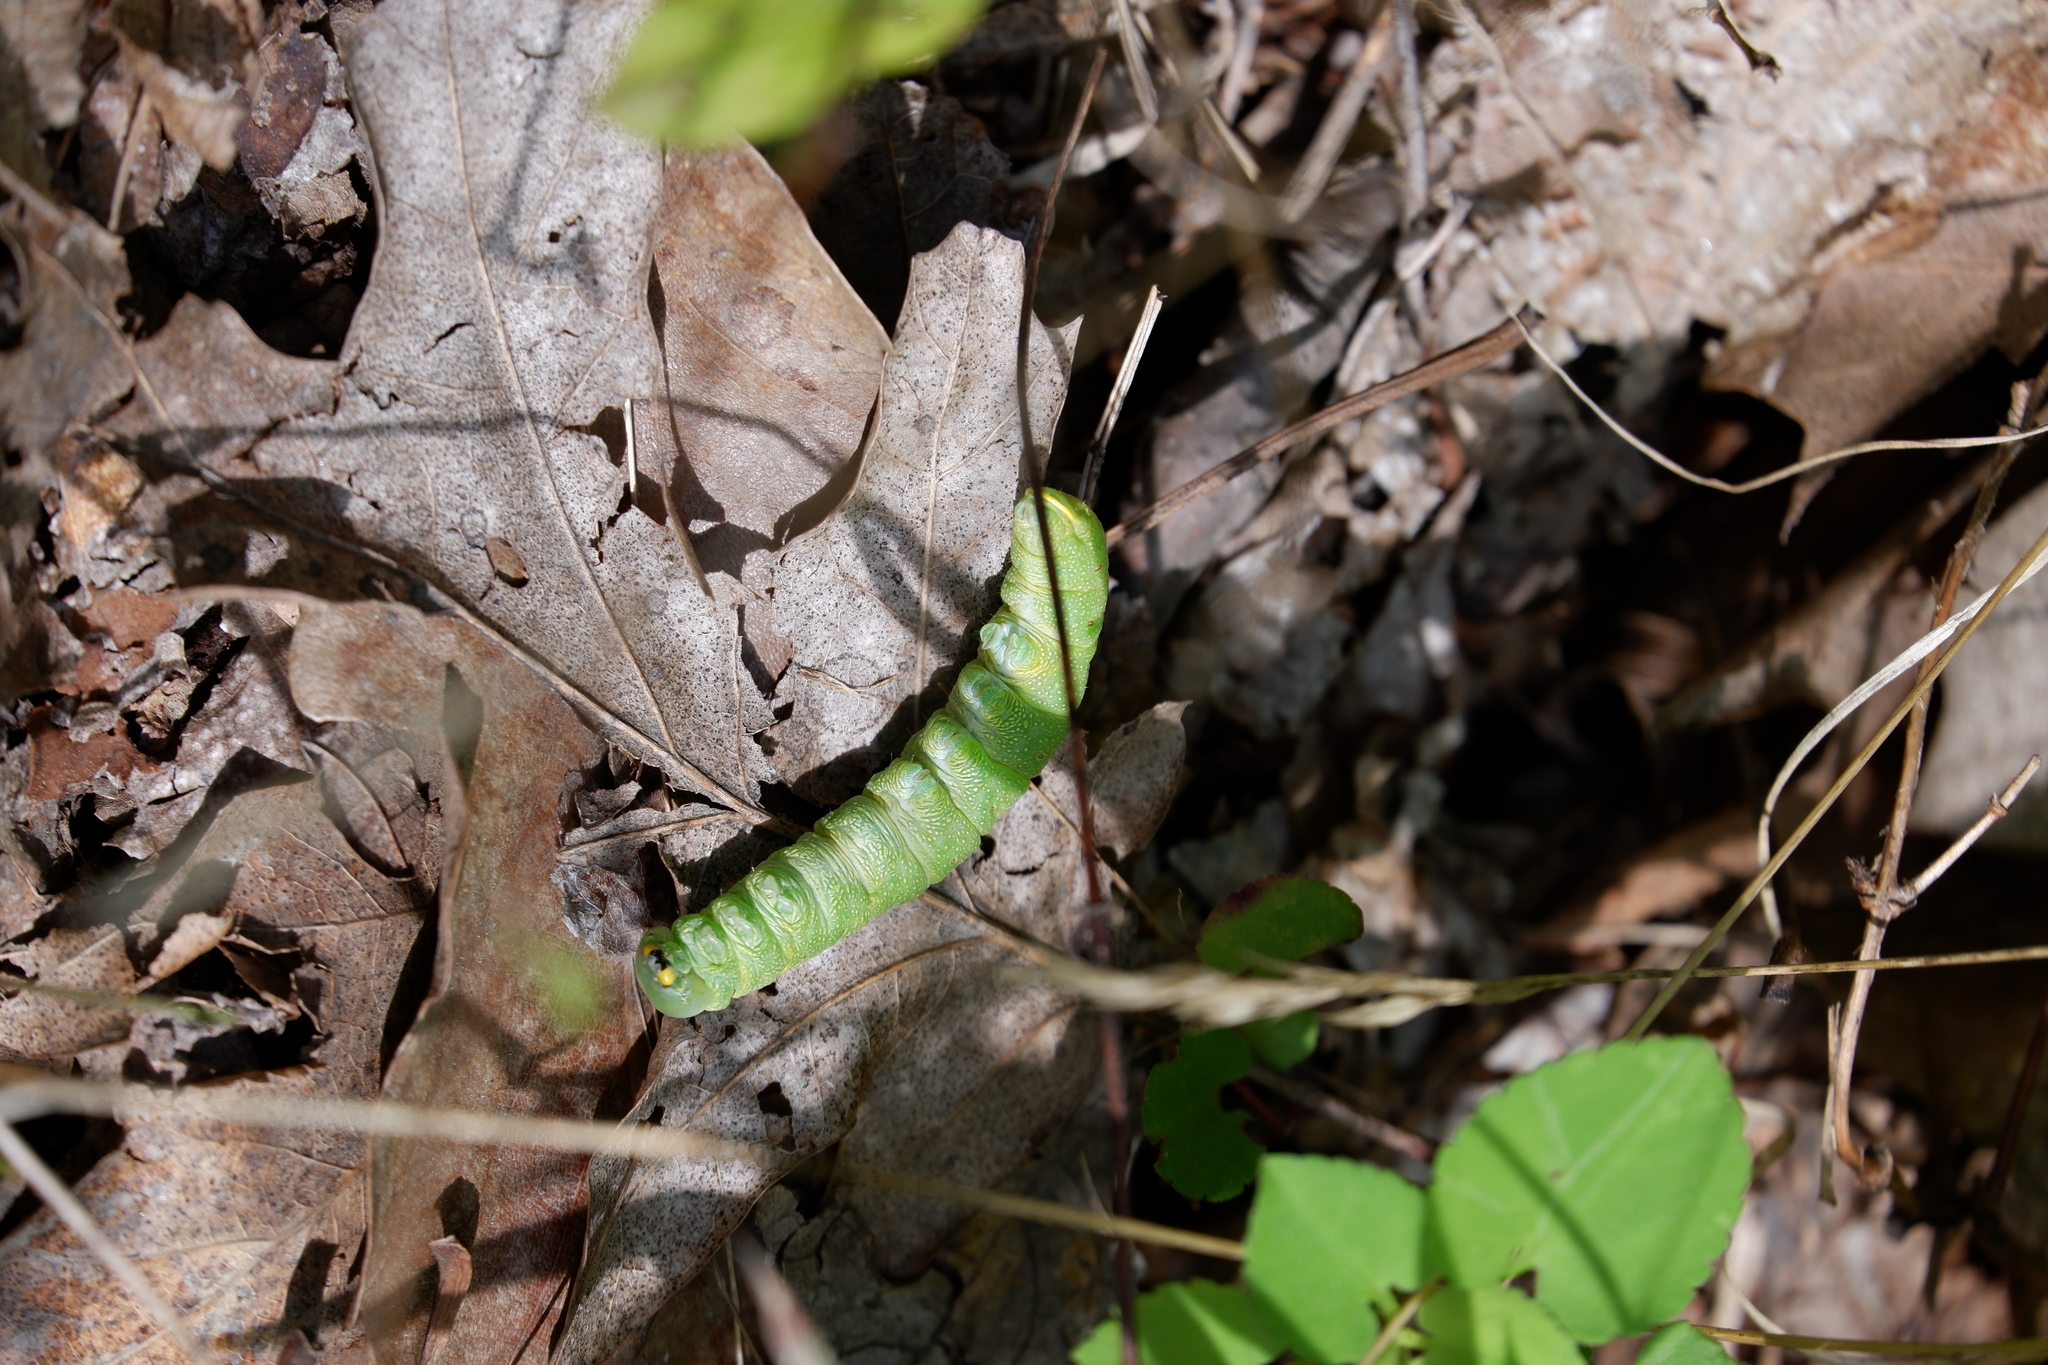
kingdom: Animalia
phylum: Arthropoda
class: Insecta
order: Lepidoptera
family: Notodontidae
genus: Nadata
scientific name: Nadata gibbosa
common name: White-dotted prominent
